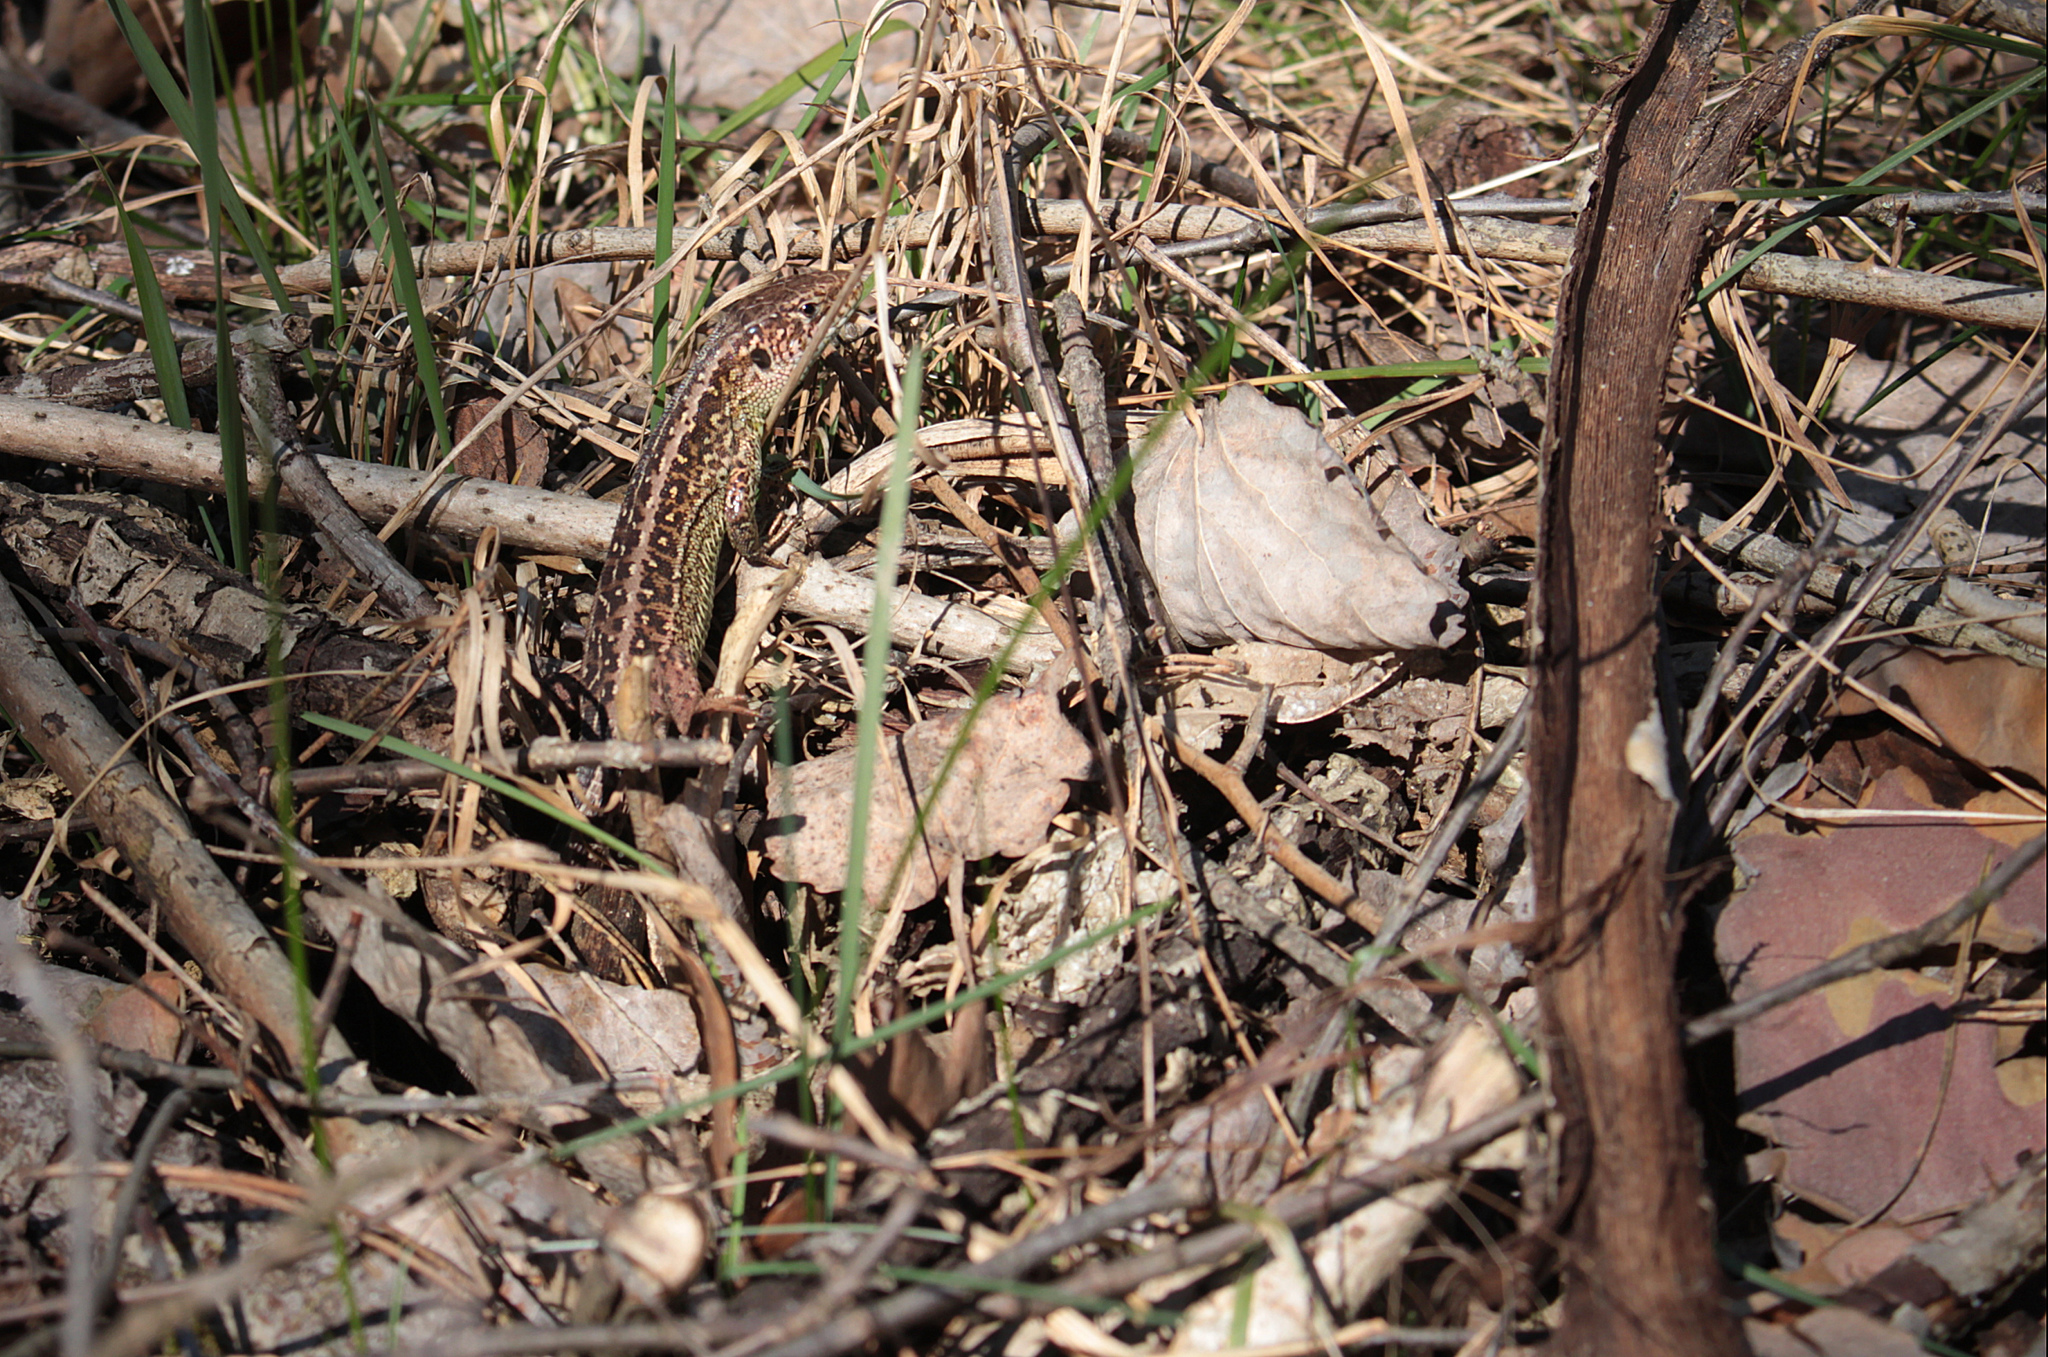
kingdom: Animalia
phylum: Chordata
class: Squamata
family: Lacertidae
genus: Lacerta
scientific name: Lacerta agilis
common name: Sand lizard
